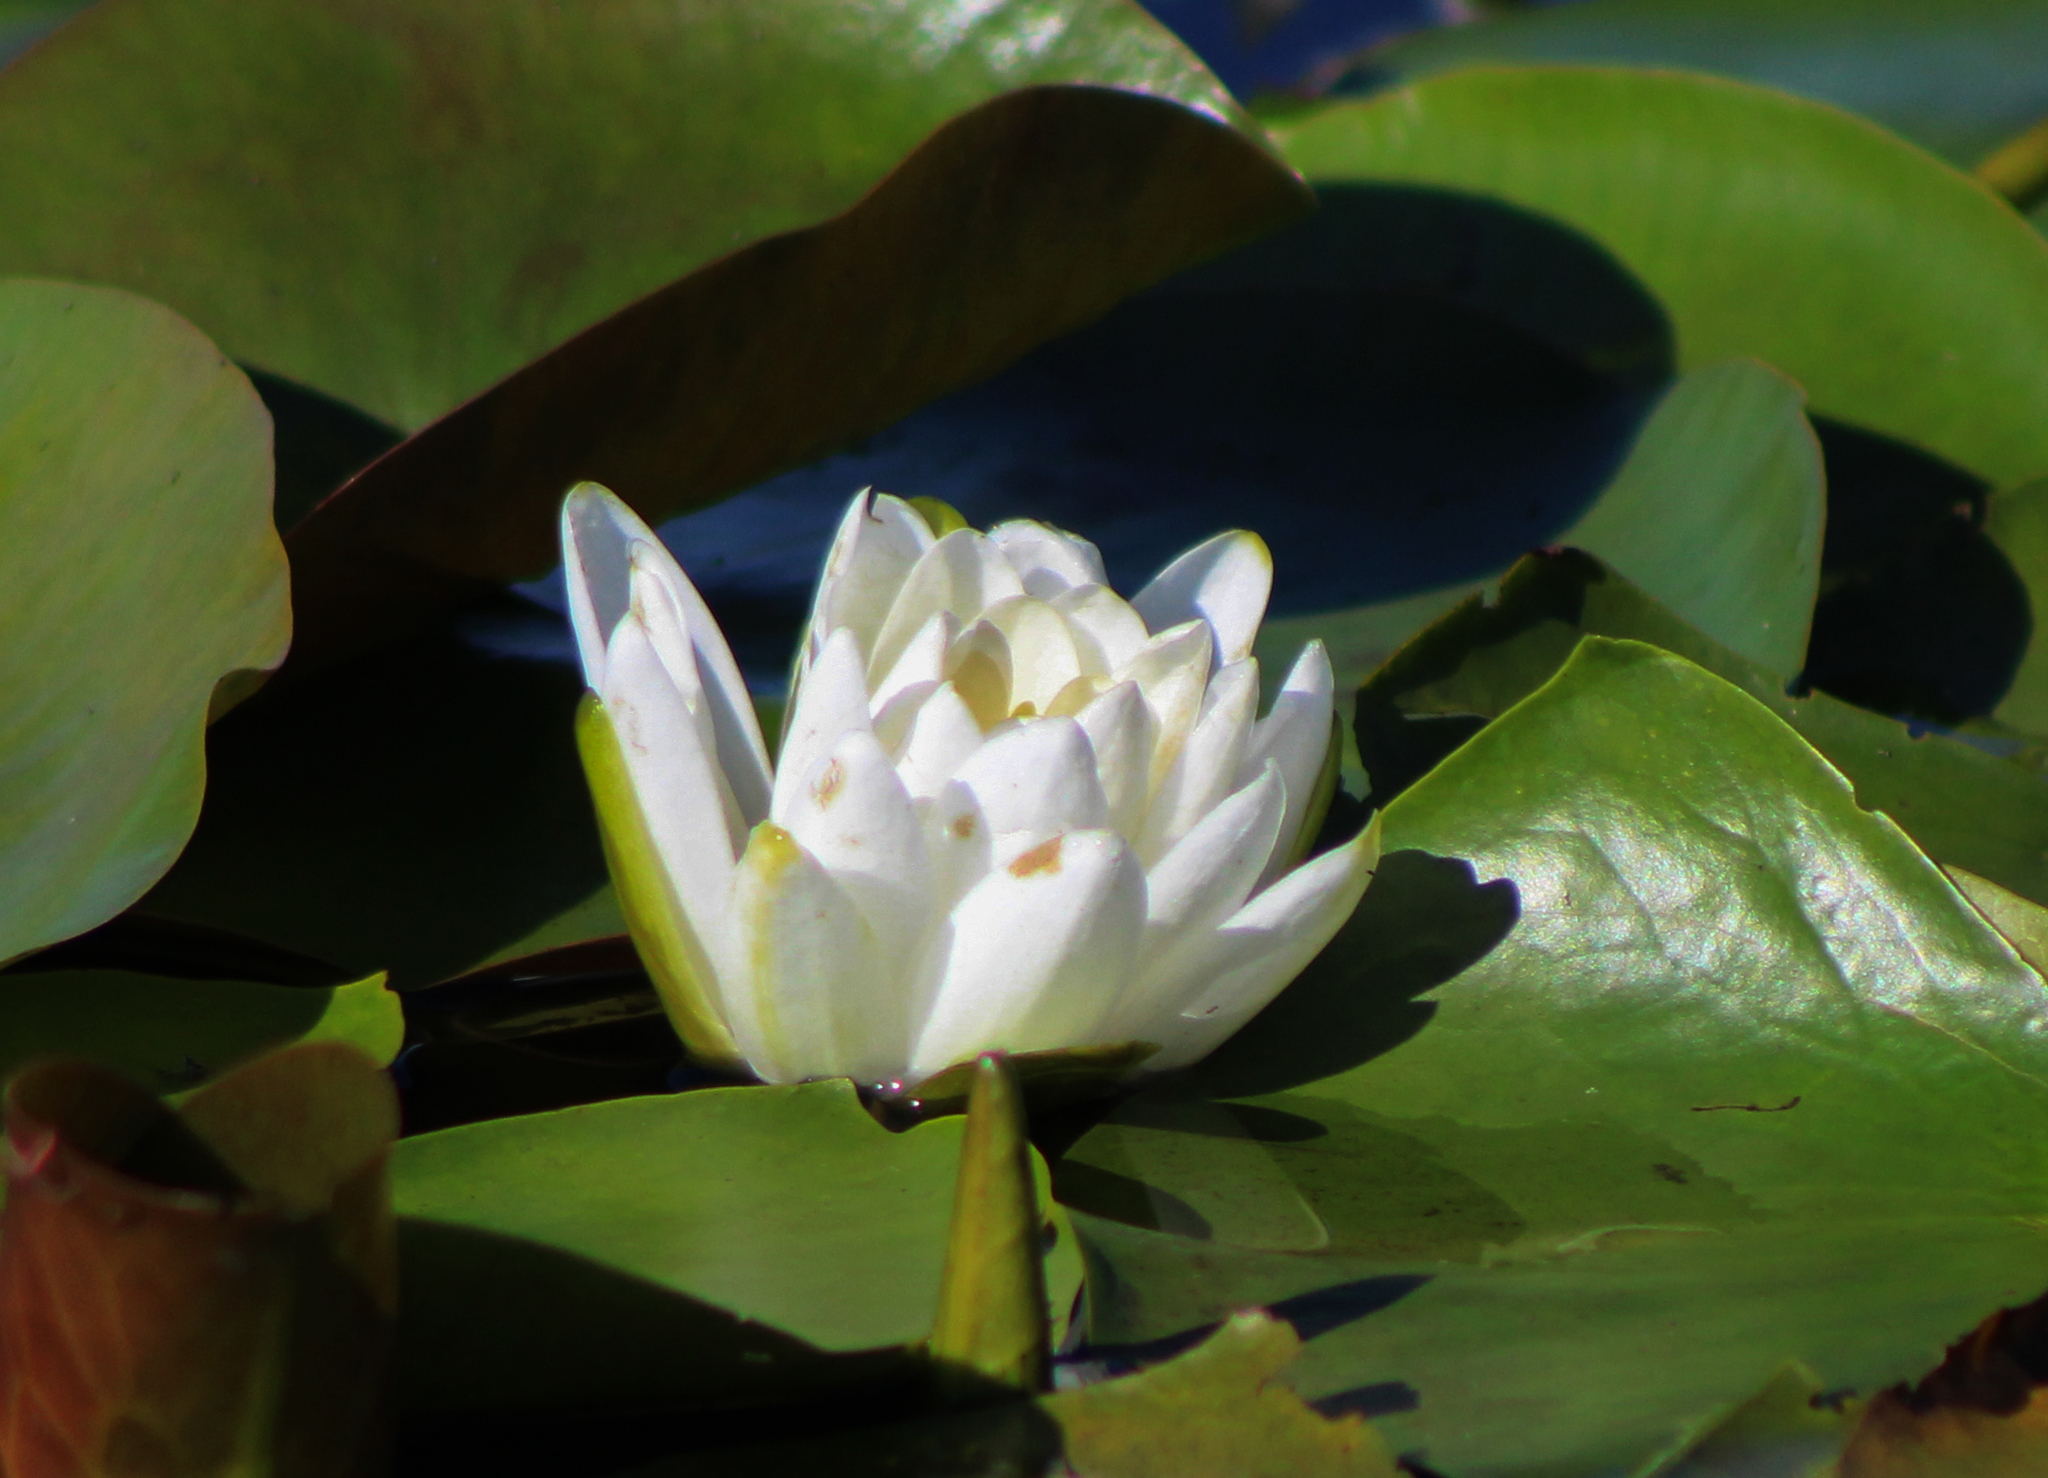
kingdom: Plantae
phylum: Tracheophyta
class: Magnoliopsida
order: Nymphaeales
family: Nymphaeaceae
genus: Nymphaea
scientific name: Nymphaea odorata
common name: Fragrant water-lily
